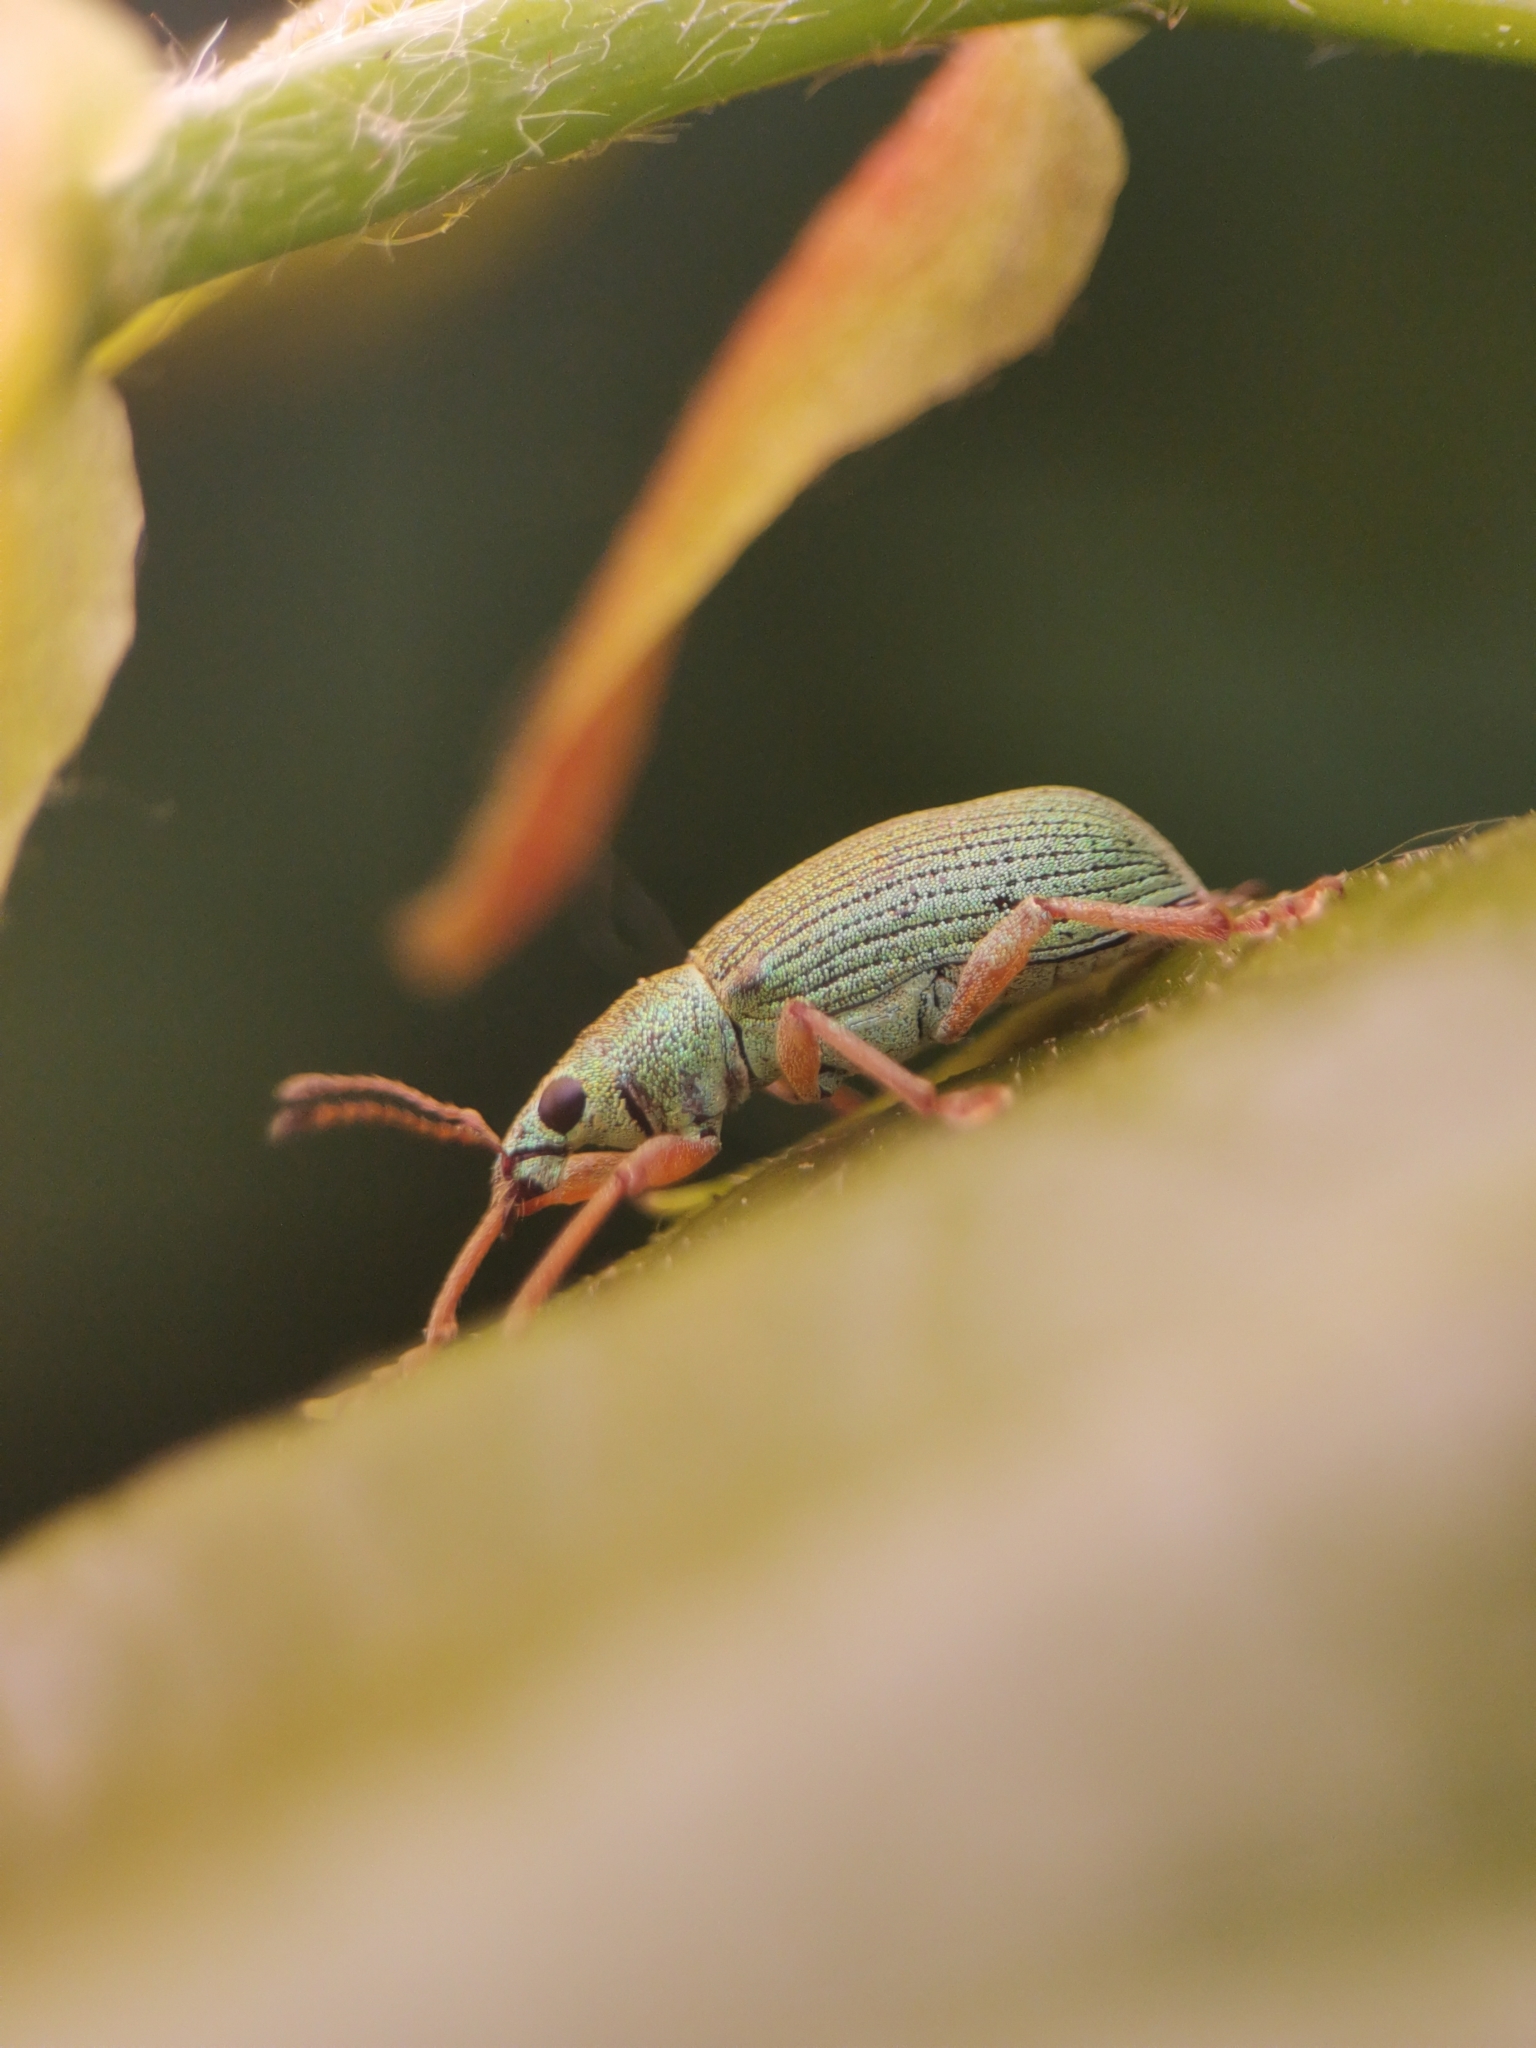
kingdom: Animalia
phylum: Arthropoda
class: Insecta
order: Coleoptera
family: Curculionidae
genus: Polydrusus
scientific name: Polydrusus formosus
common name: Weevil
